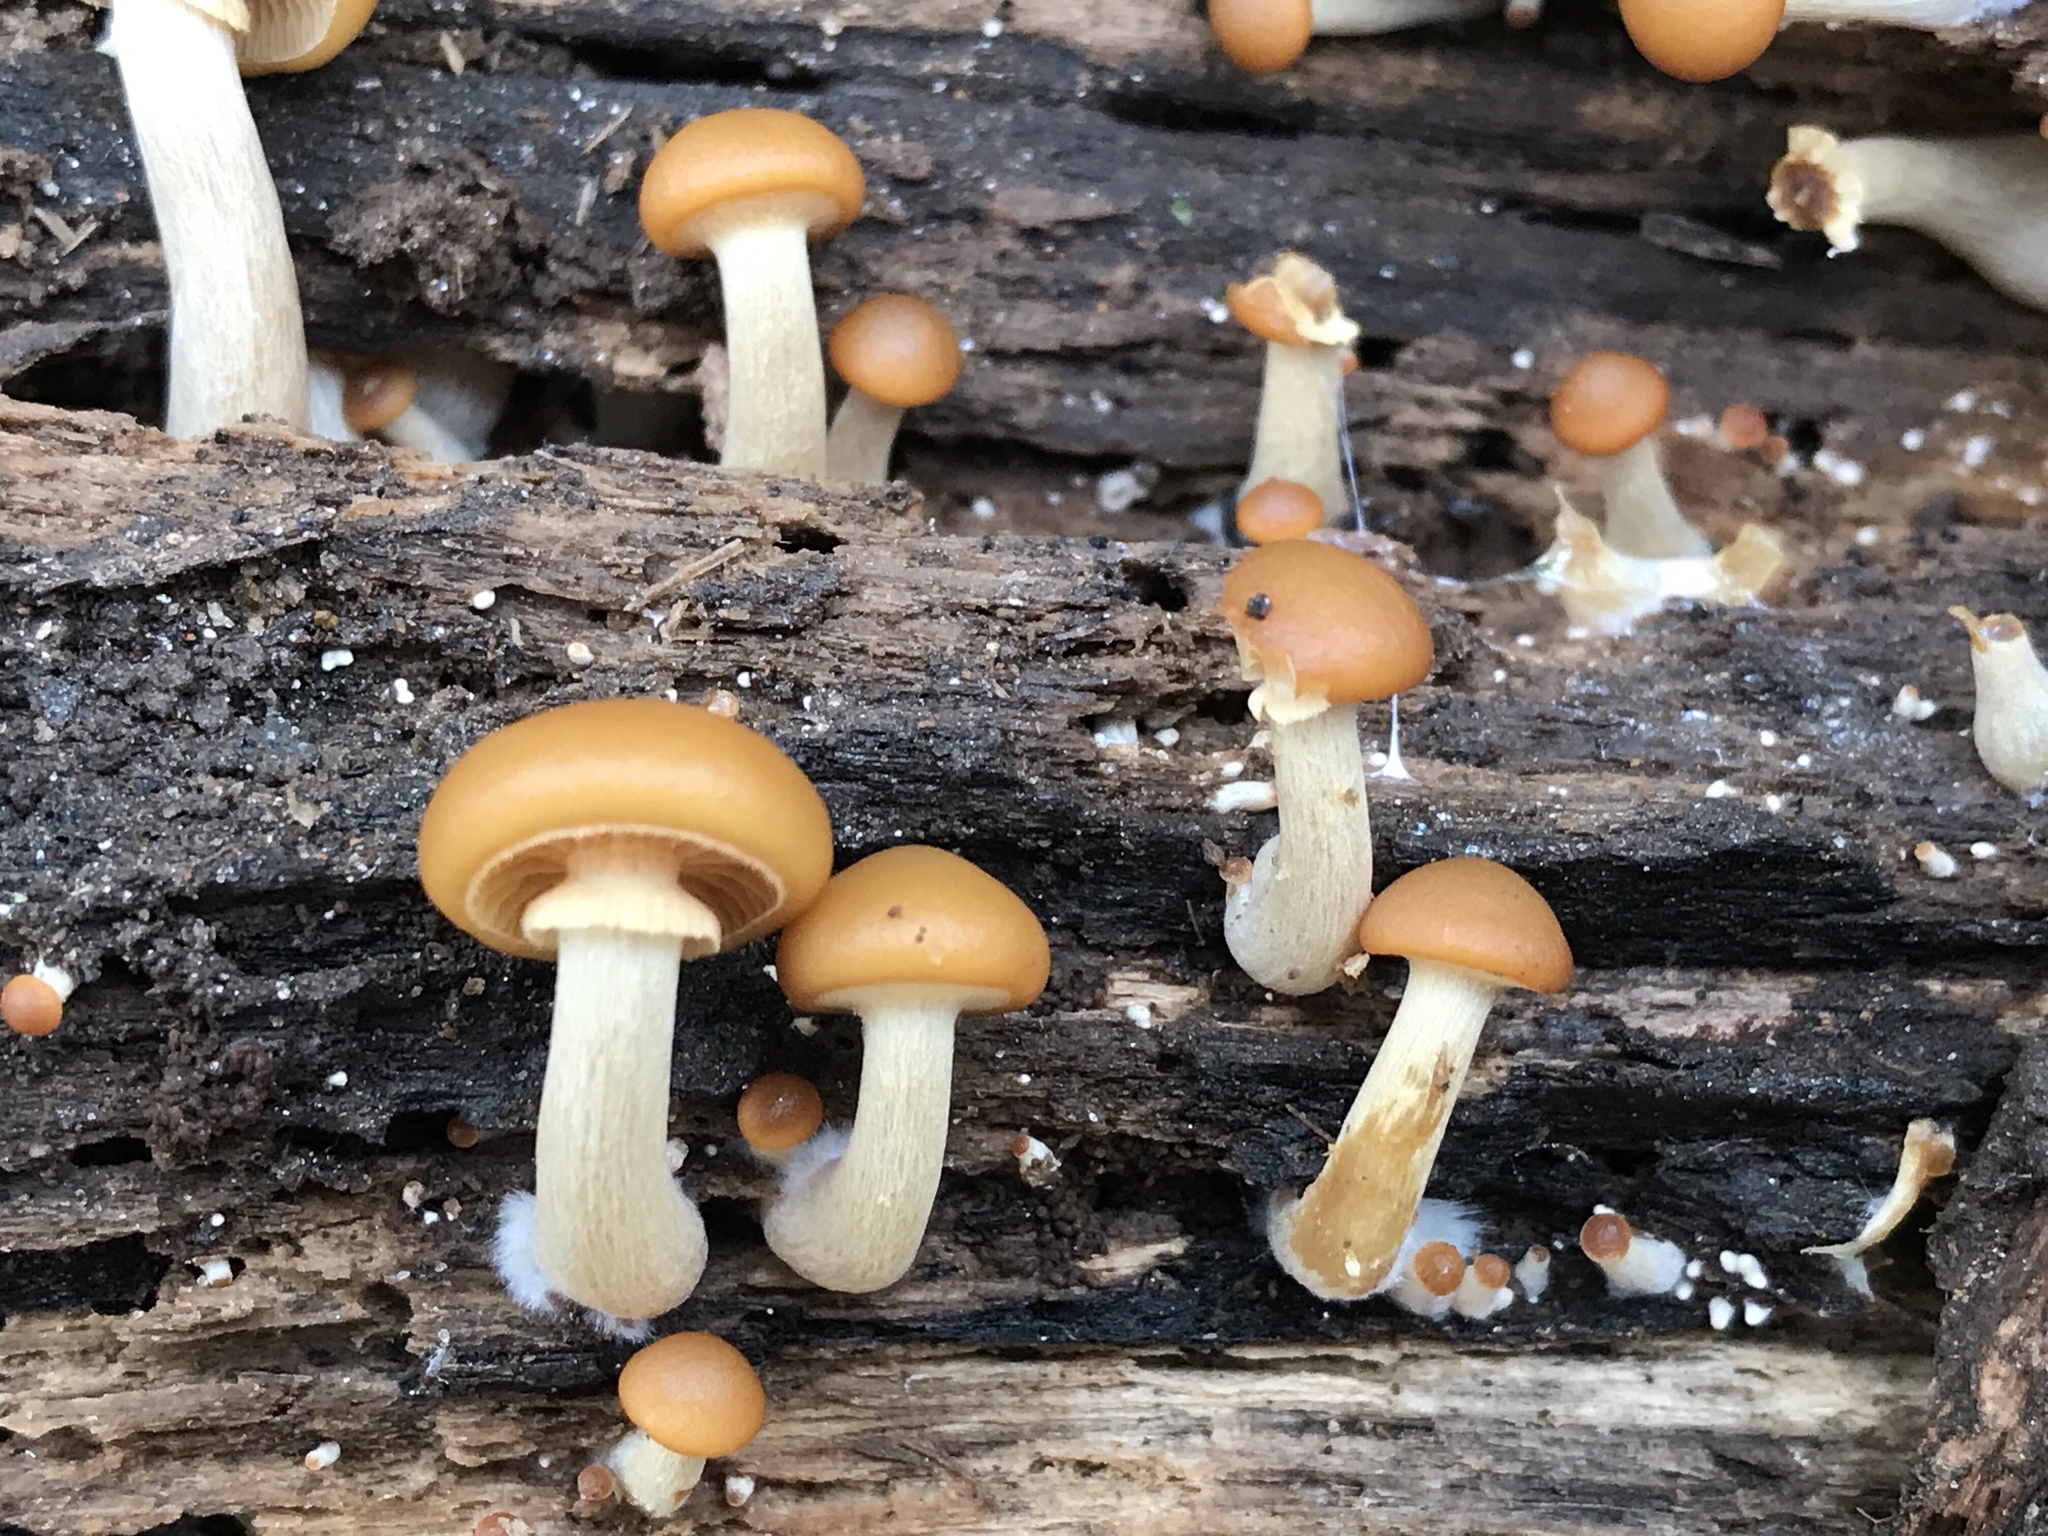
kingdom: Fungi
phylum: Basidiomycota
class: Agaricomycetes
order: Agaricales
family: Hymenogastraceae
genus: Galerina
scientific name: Galerina marginata
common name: Funeral bell
